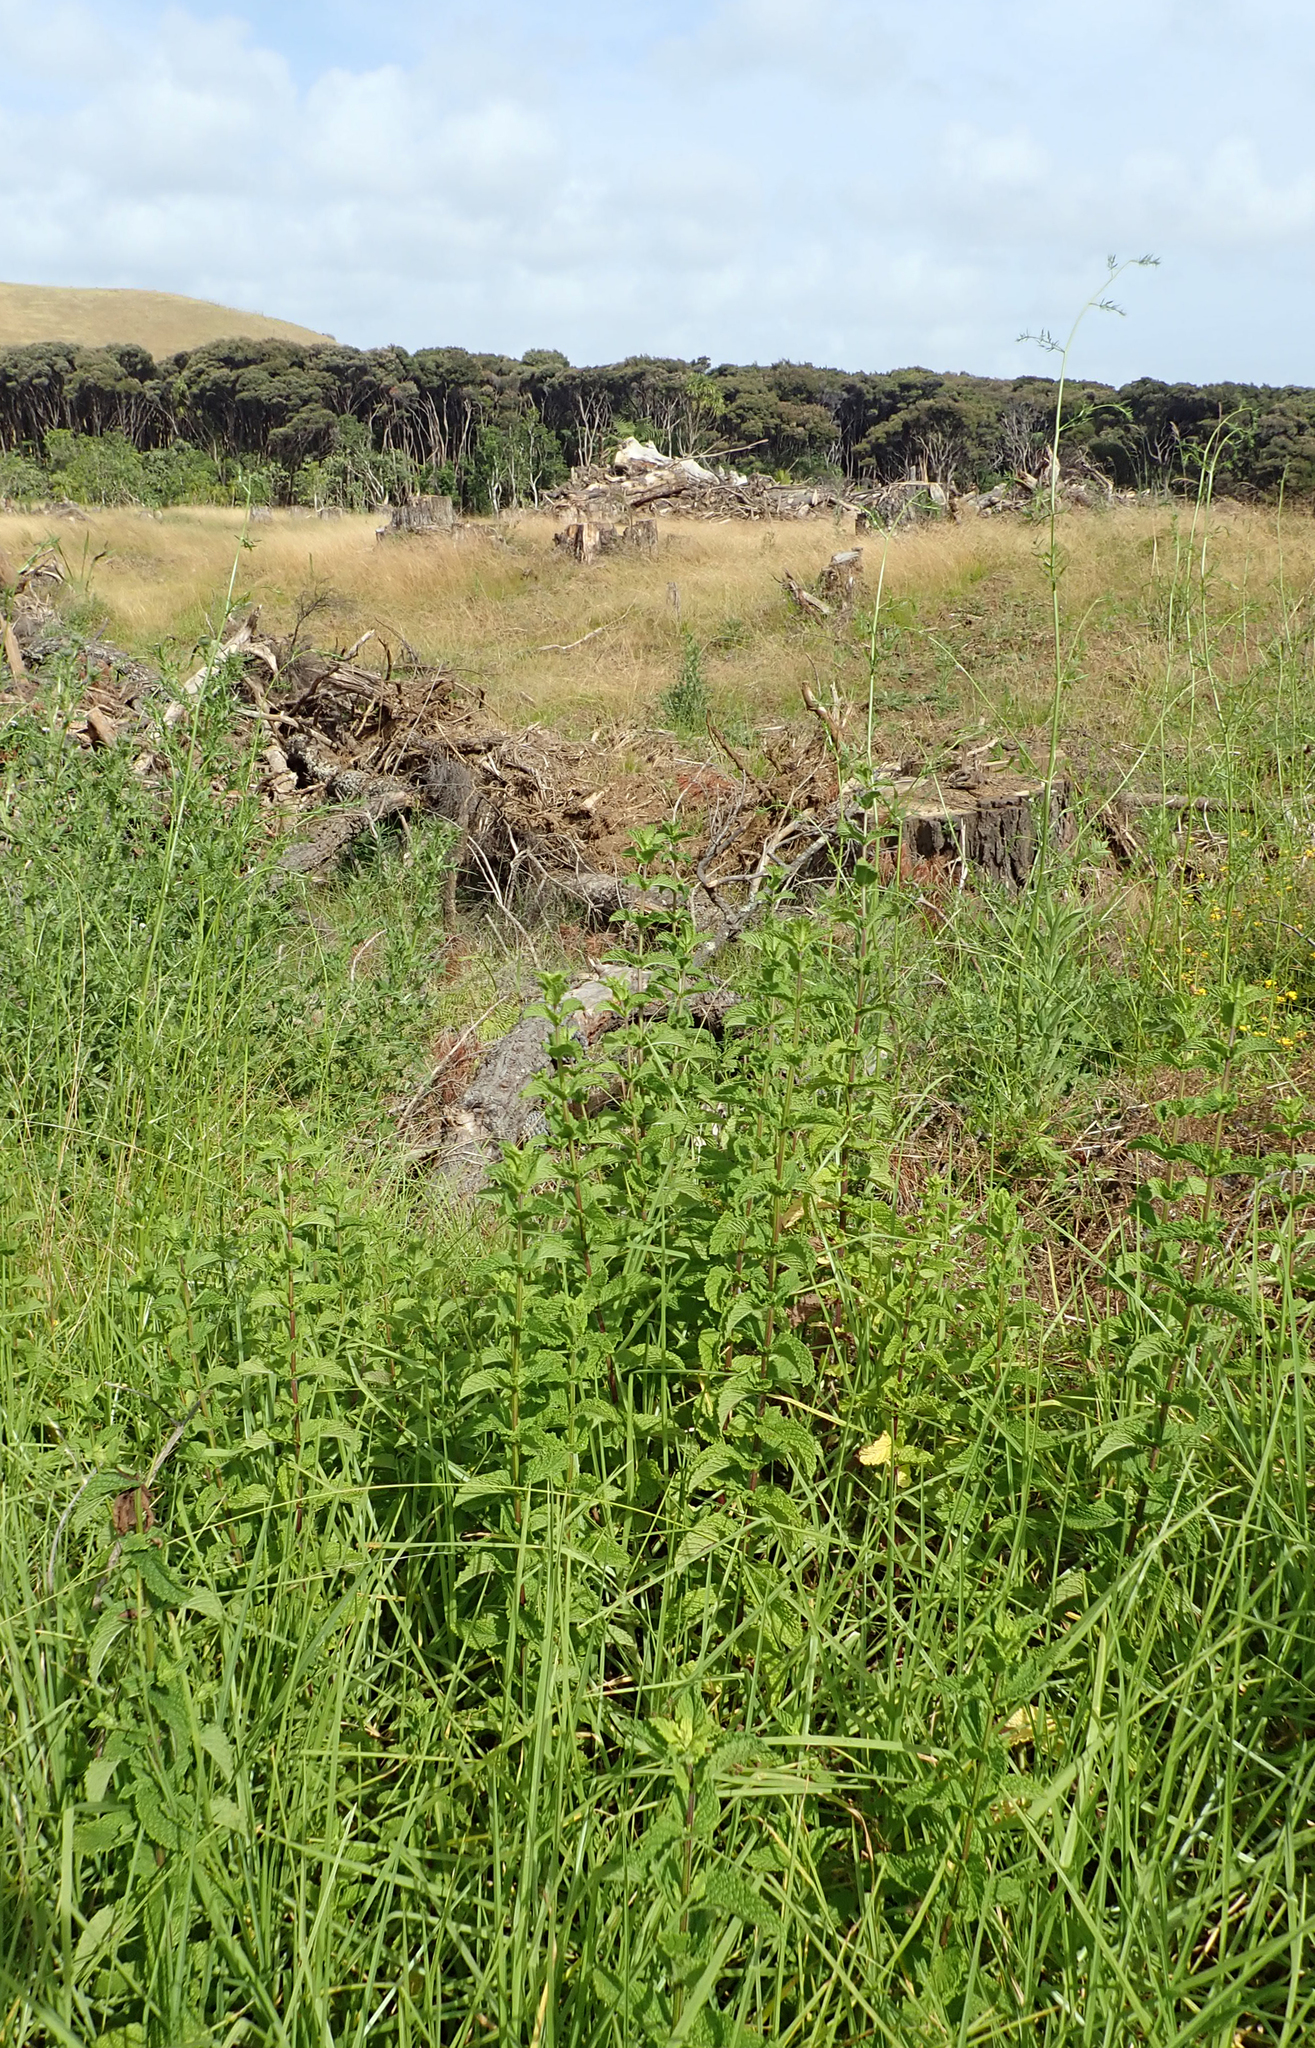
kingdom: Plantae
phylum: Tracheophyta
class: Magnoliopsida
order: Lamiales
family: Lamiaceae
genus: Mentha
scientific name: Mentha spicata
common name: Spearmint
